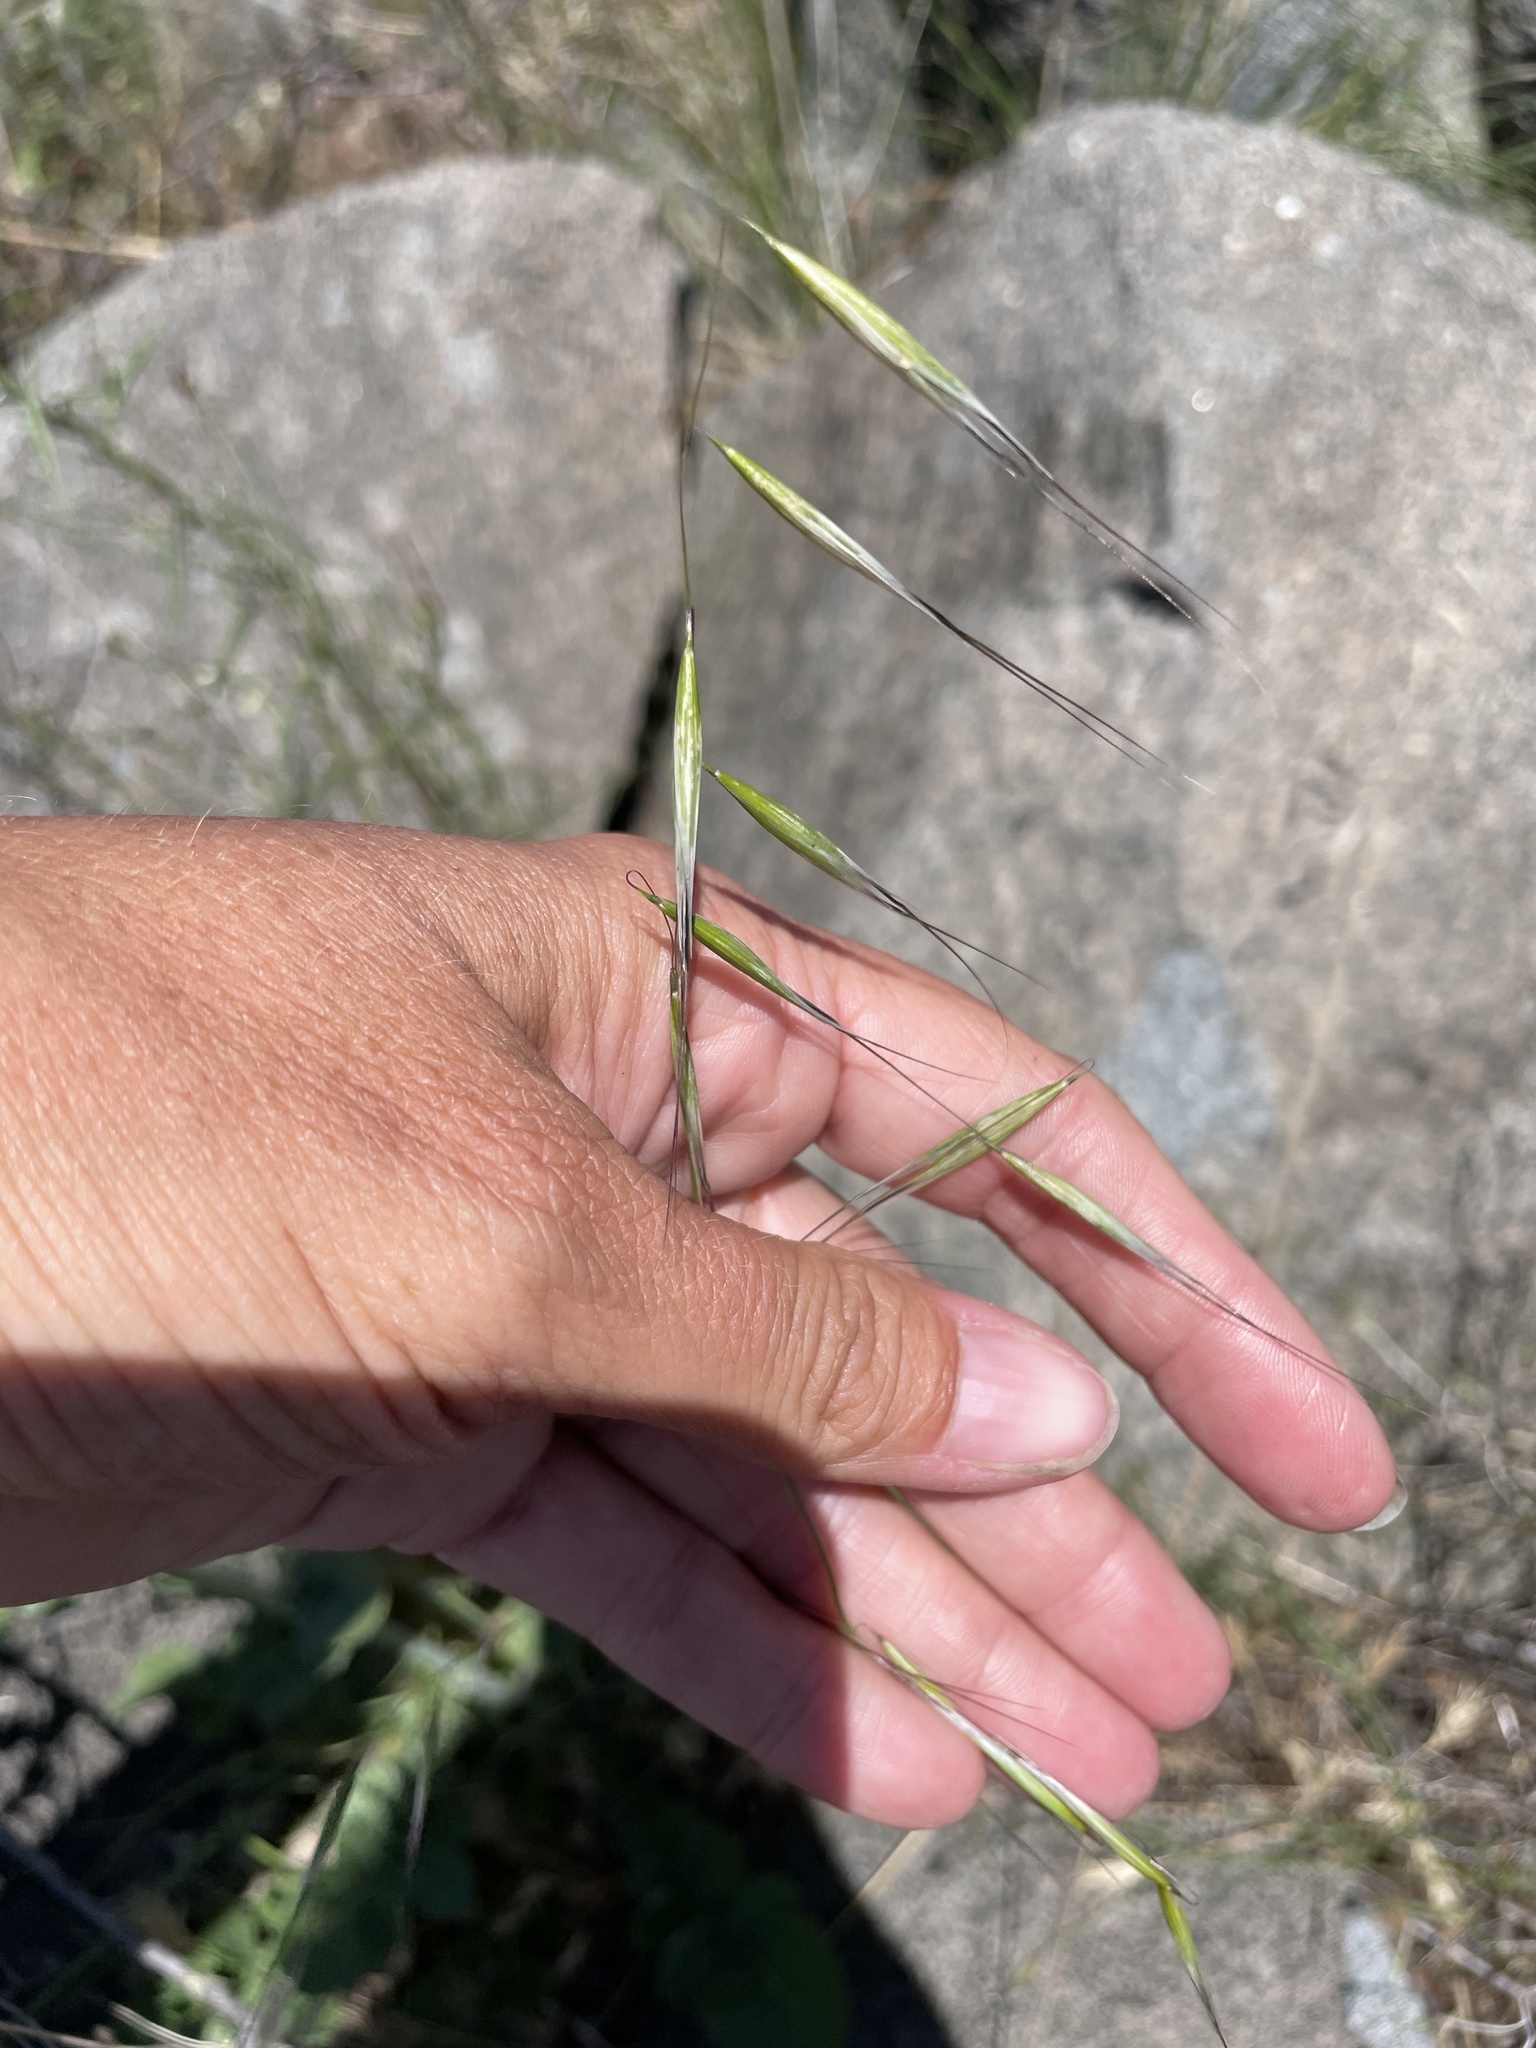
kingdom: Plantae
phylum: Tracheophyta
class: Liliopsida
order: Poales
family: Poaceae
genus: Avena
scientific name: Avena barbata
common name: Slender oat
